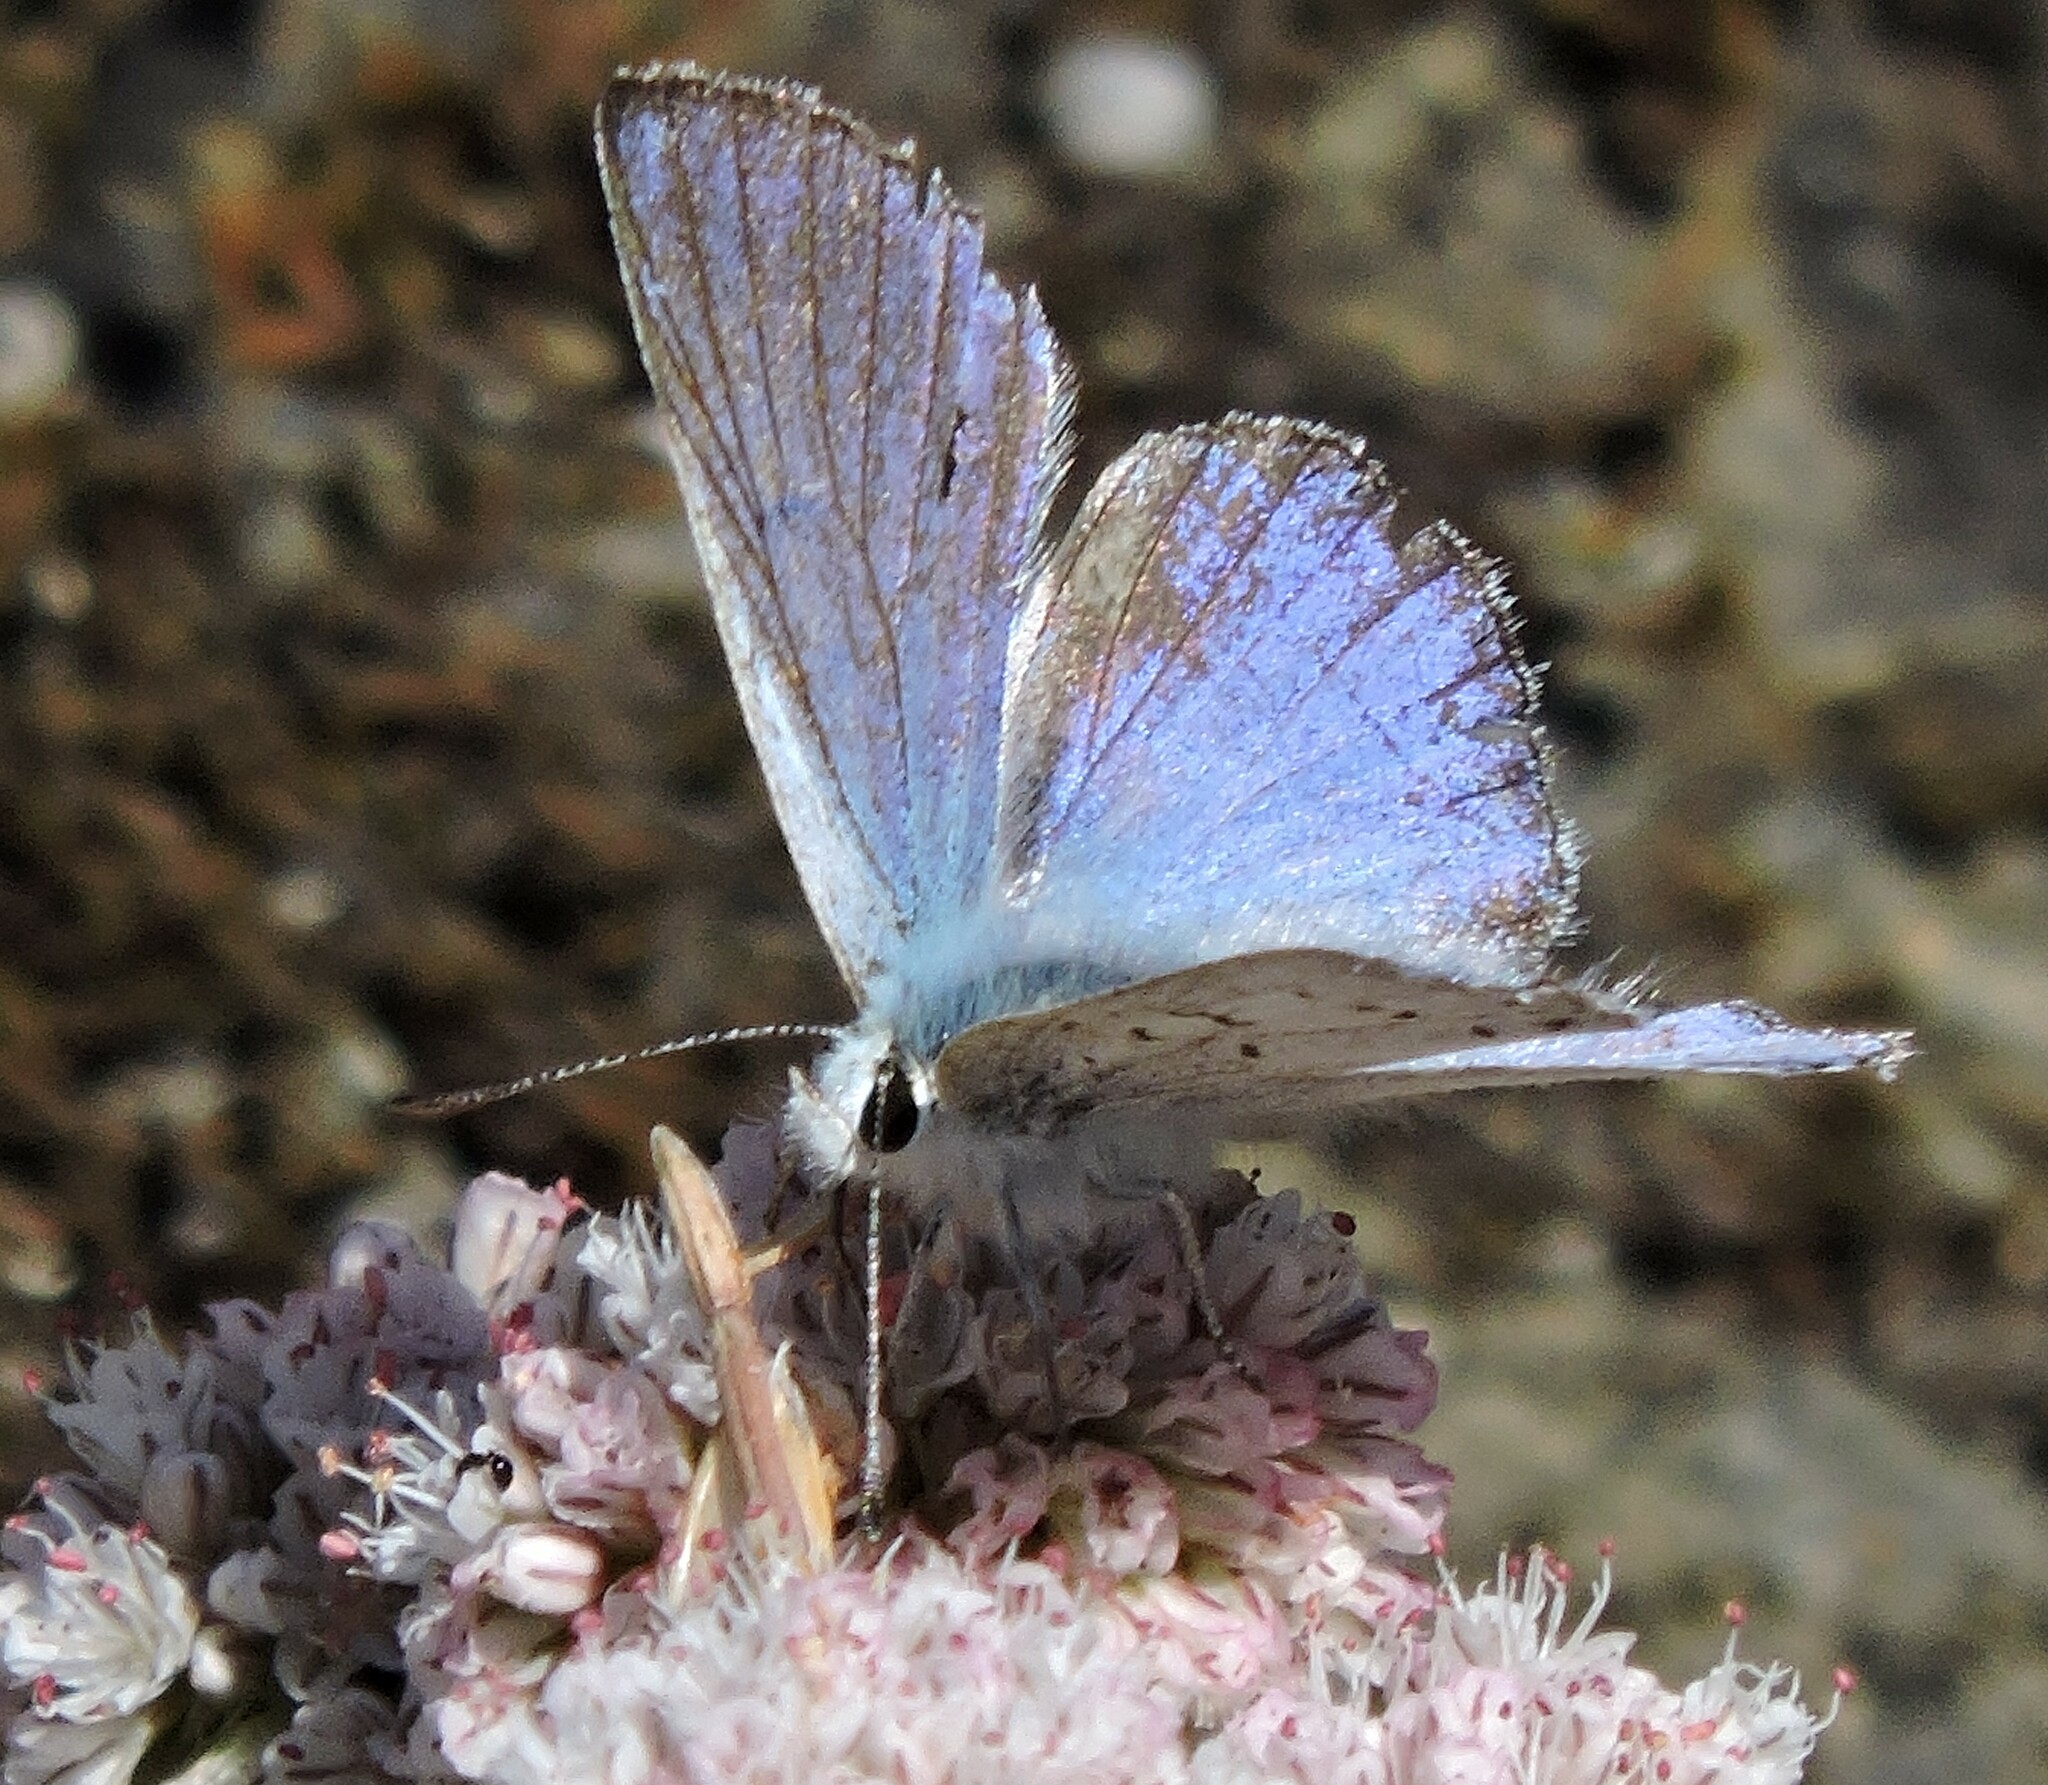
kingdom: Animalia
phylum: Arthropoda
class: Insecta
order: Lepidoptera
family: Lycaenidae
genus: Tharsalea
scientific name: Tharsalea heteronea
